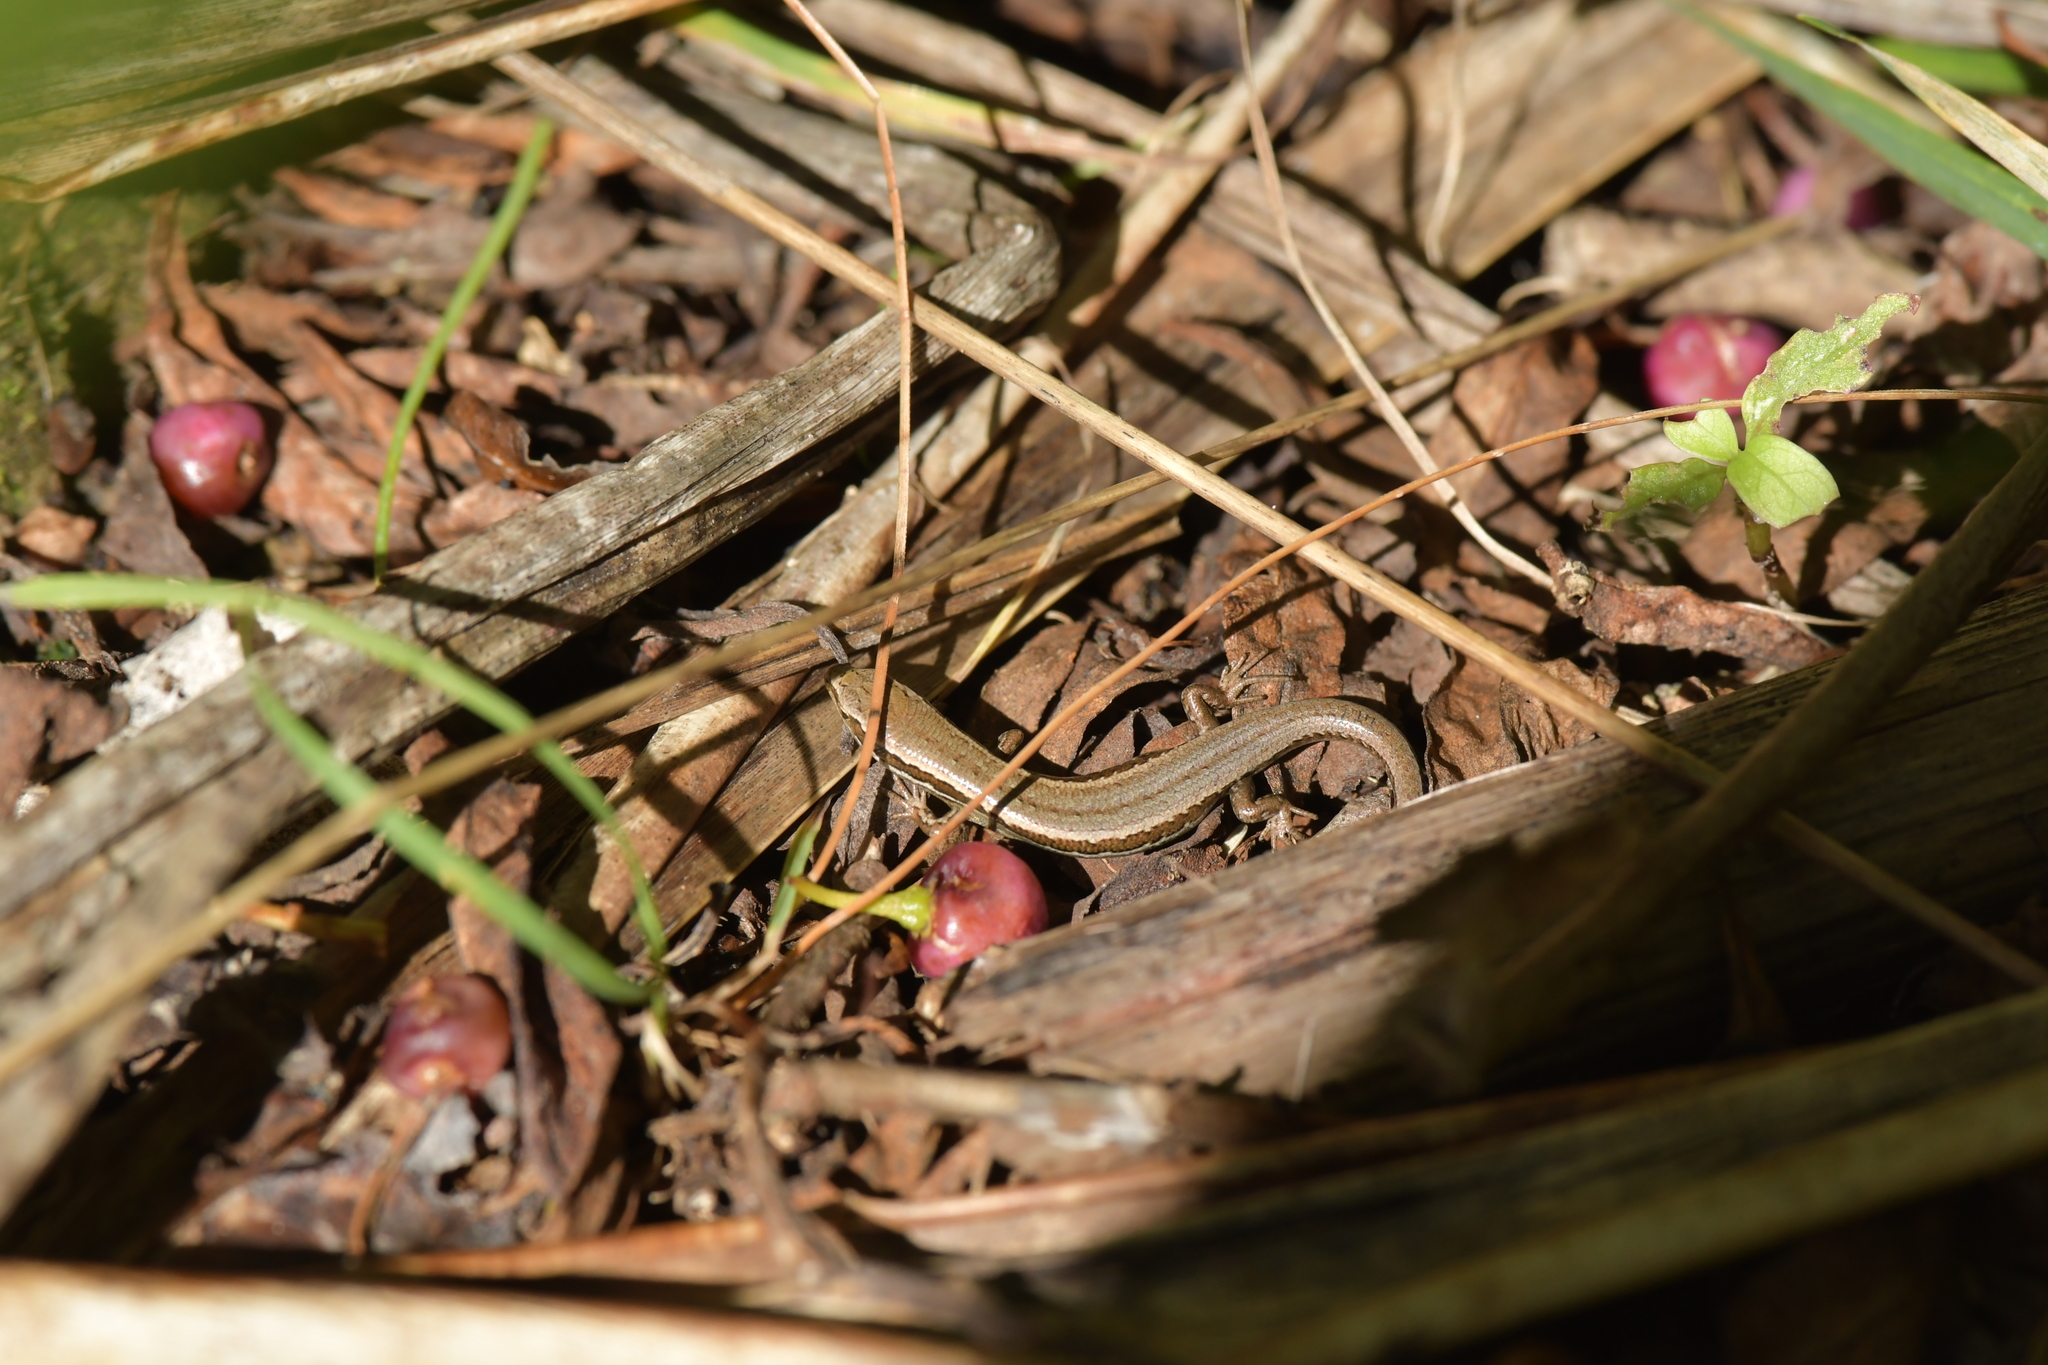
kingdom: Animalia
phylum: Chordata
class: Squamata
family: Scincidae
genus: Oligosoma
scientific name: Oligosoma polychroma
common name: Common new zealand skink
